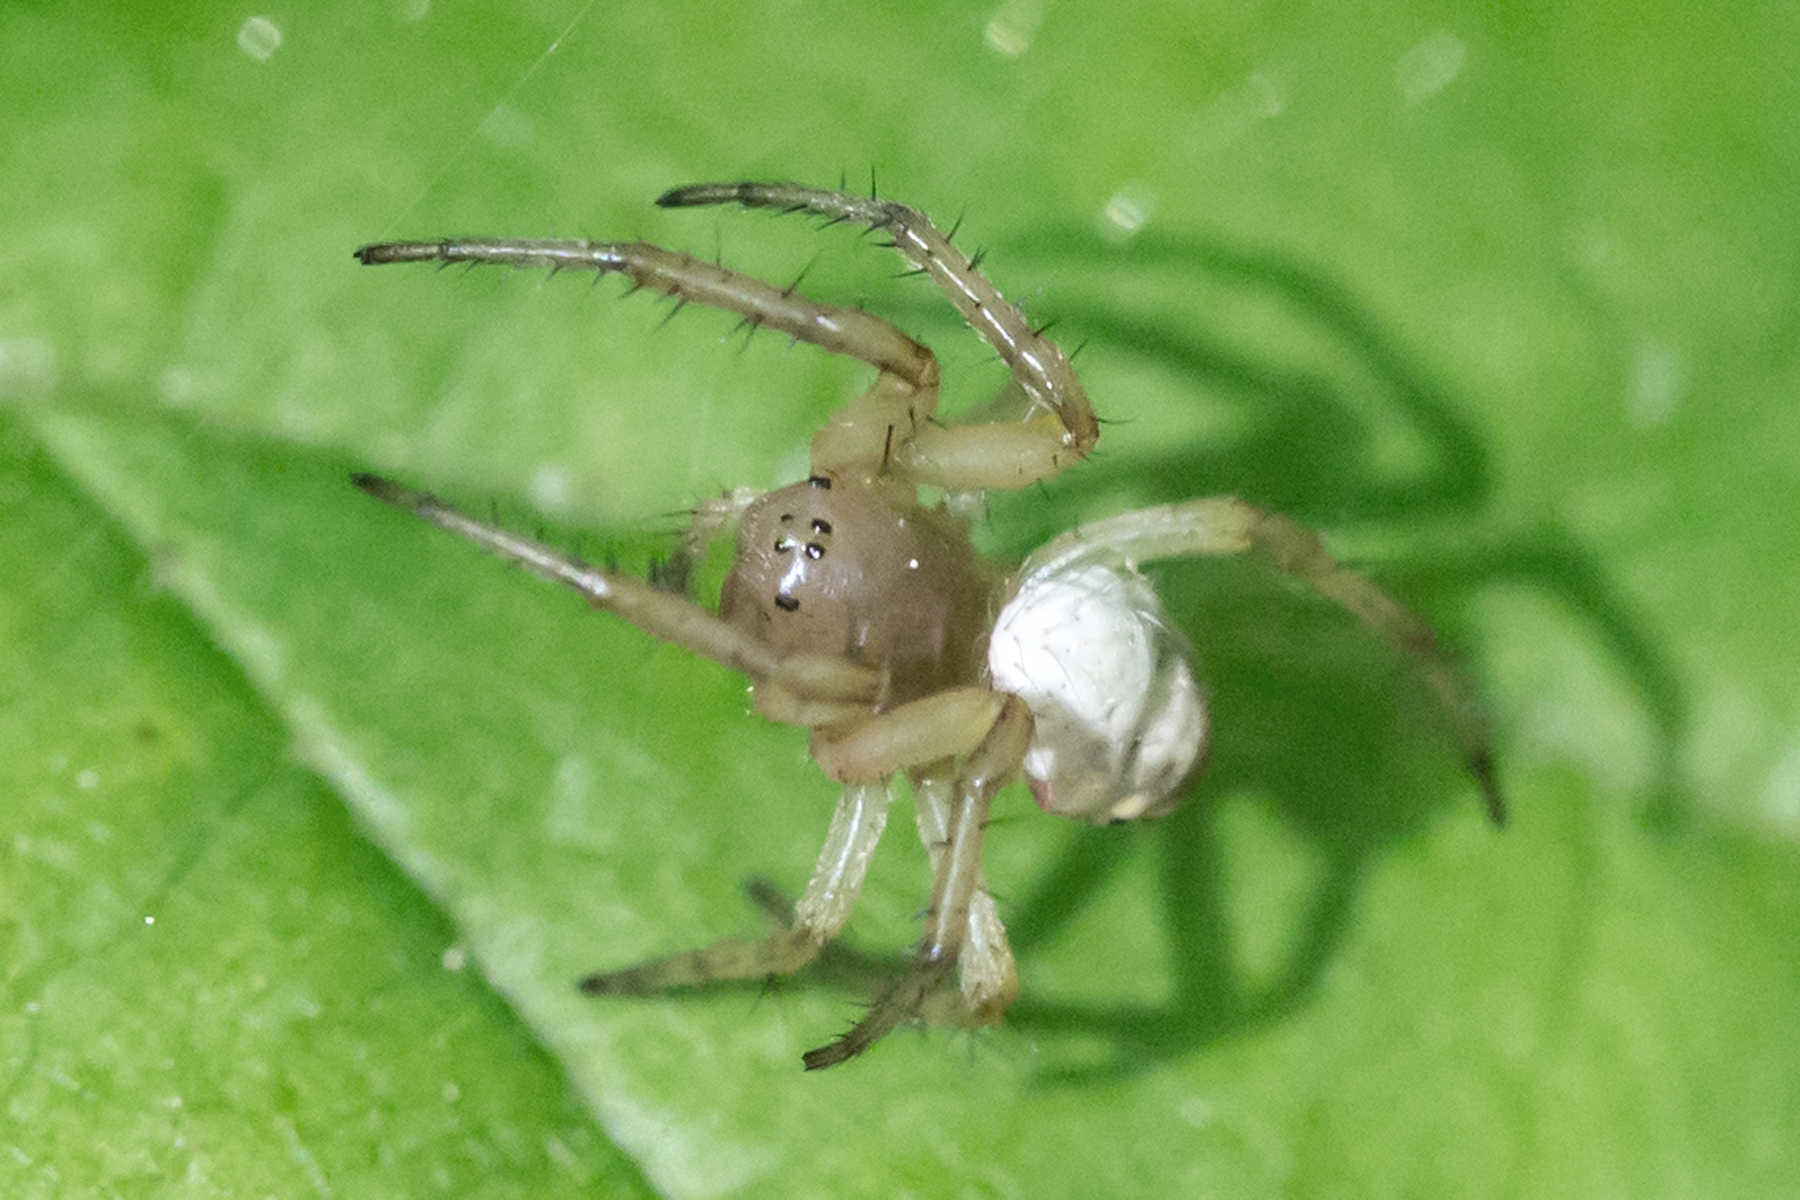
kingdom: Animalia
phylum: Arthropoda
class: Arachnida
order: Araneae
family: Araneidae
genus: Araniella
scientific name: Araniella displicata
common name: Sixspotted orb weaver
